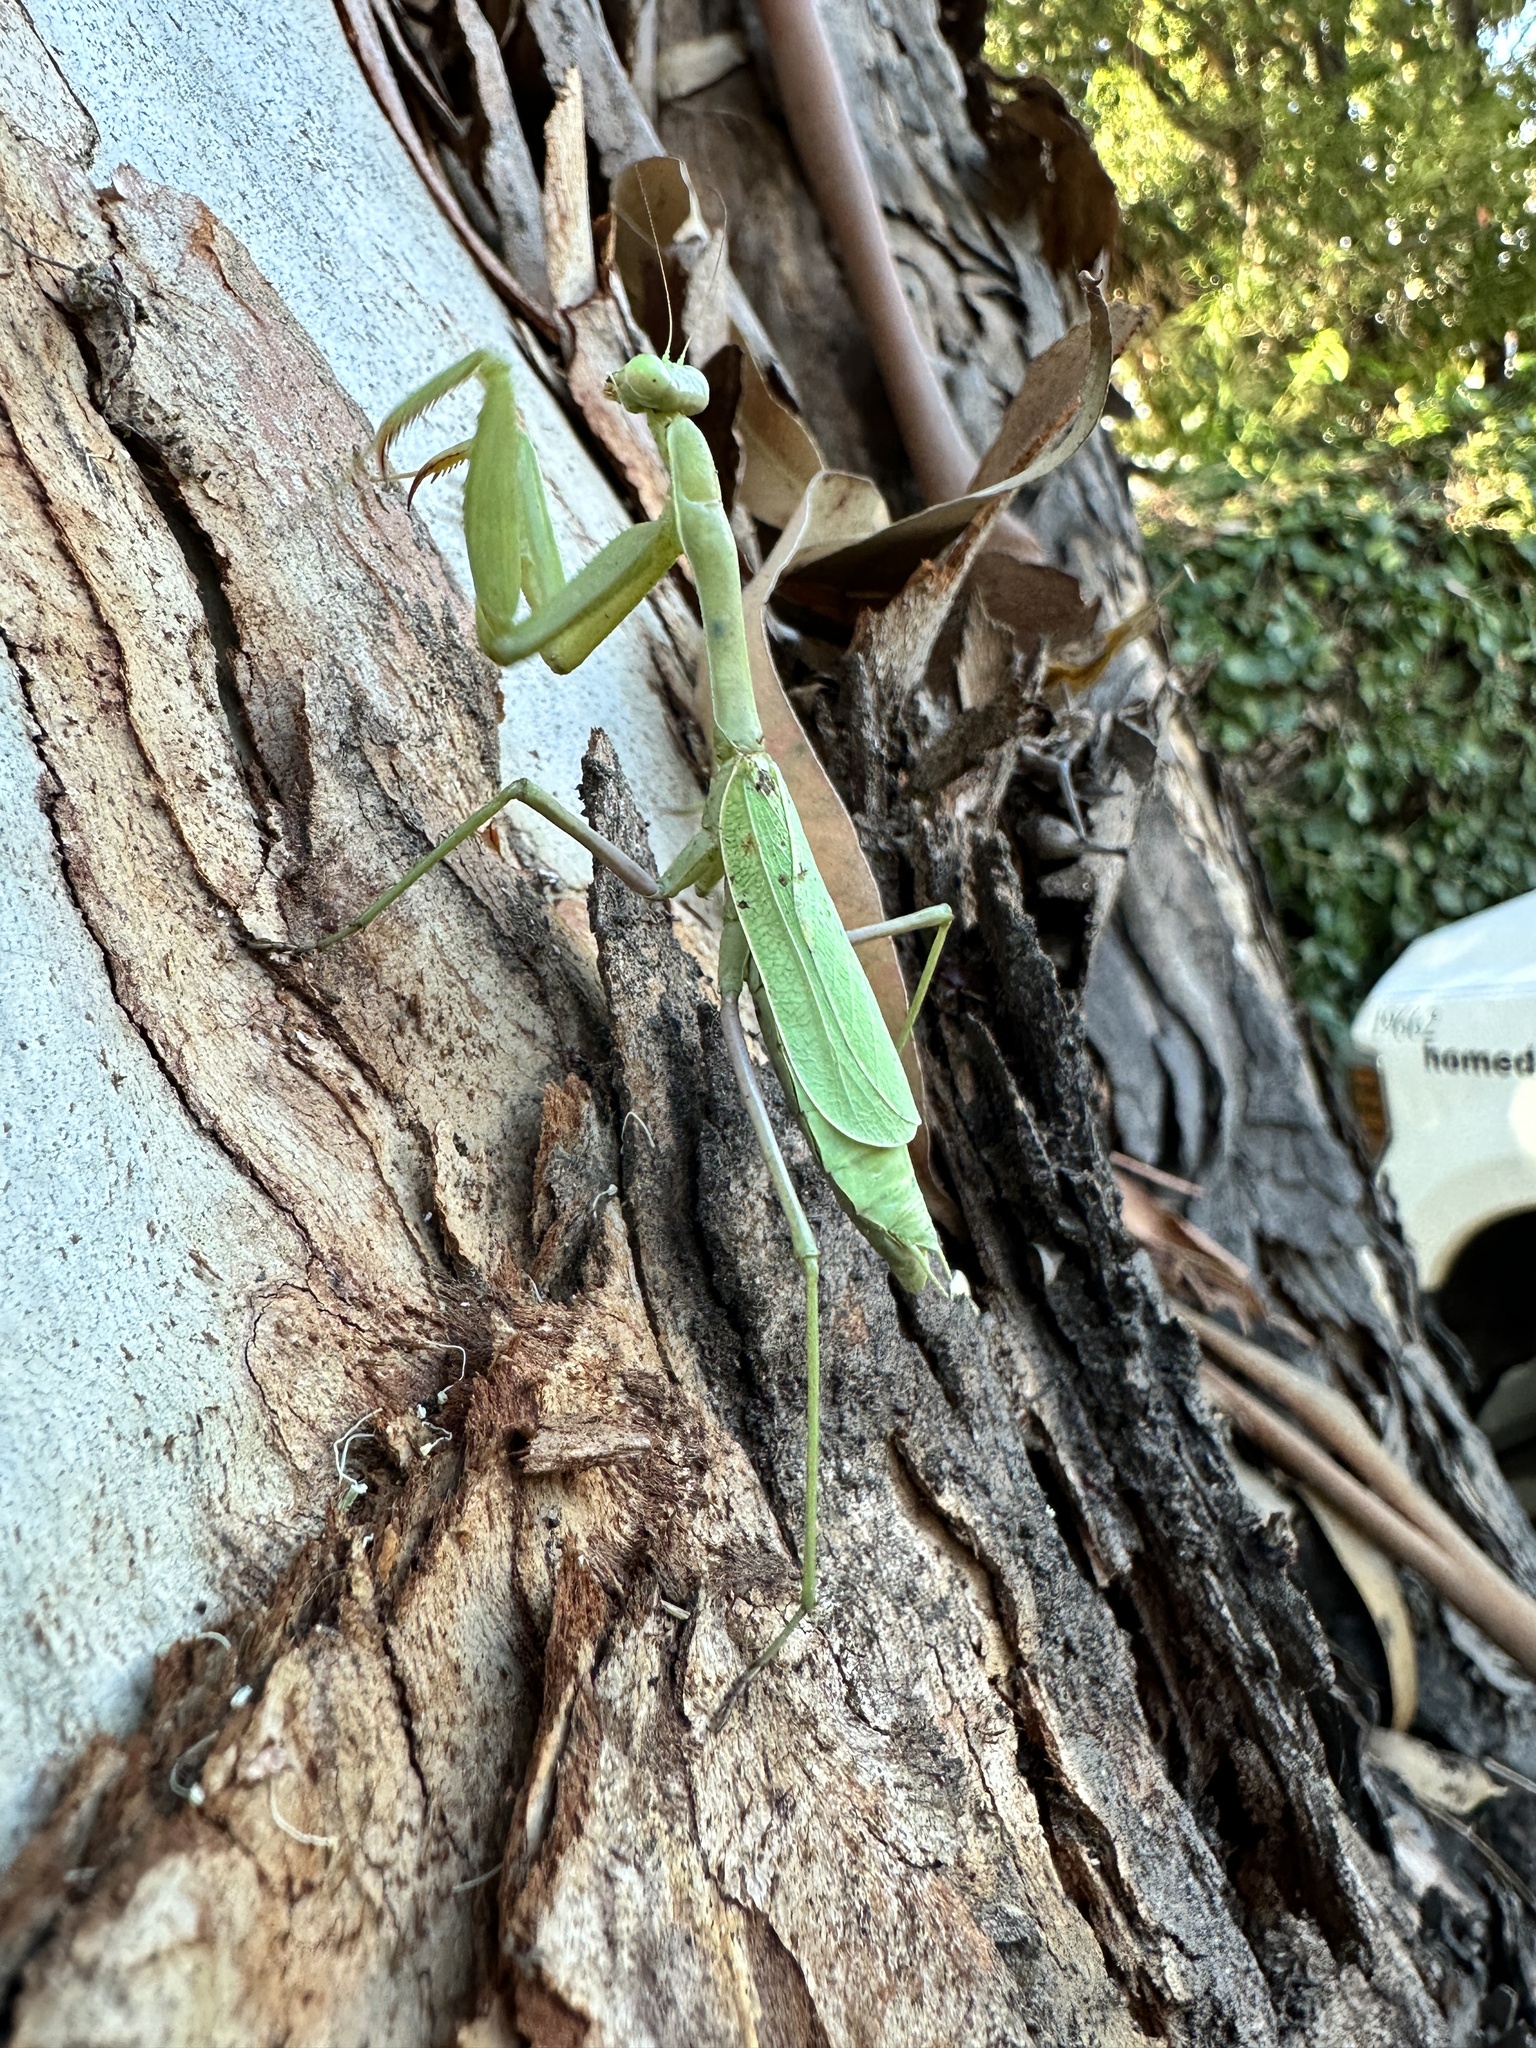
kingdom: Animalia
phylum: Arthropoda
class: Insecta
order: Mantodea
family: Mantidae
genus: Stagmomantis
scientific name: Stagmomantis limbata
